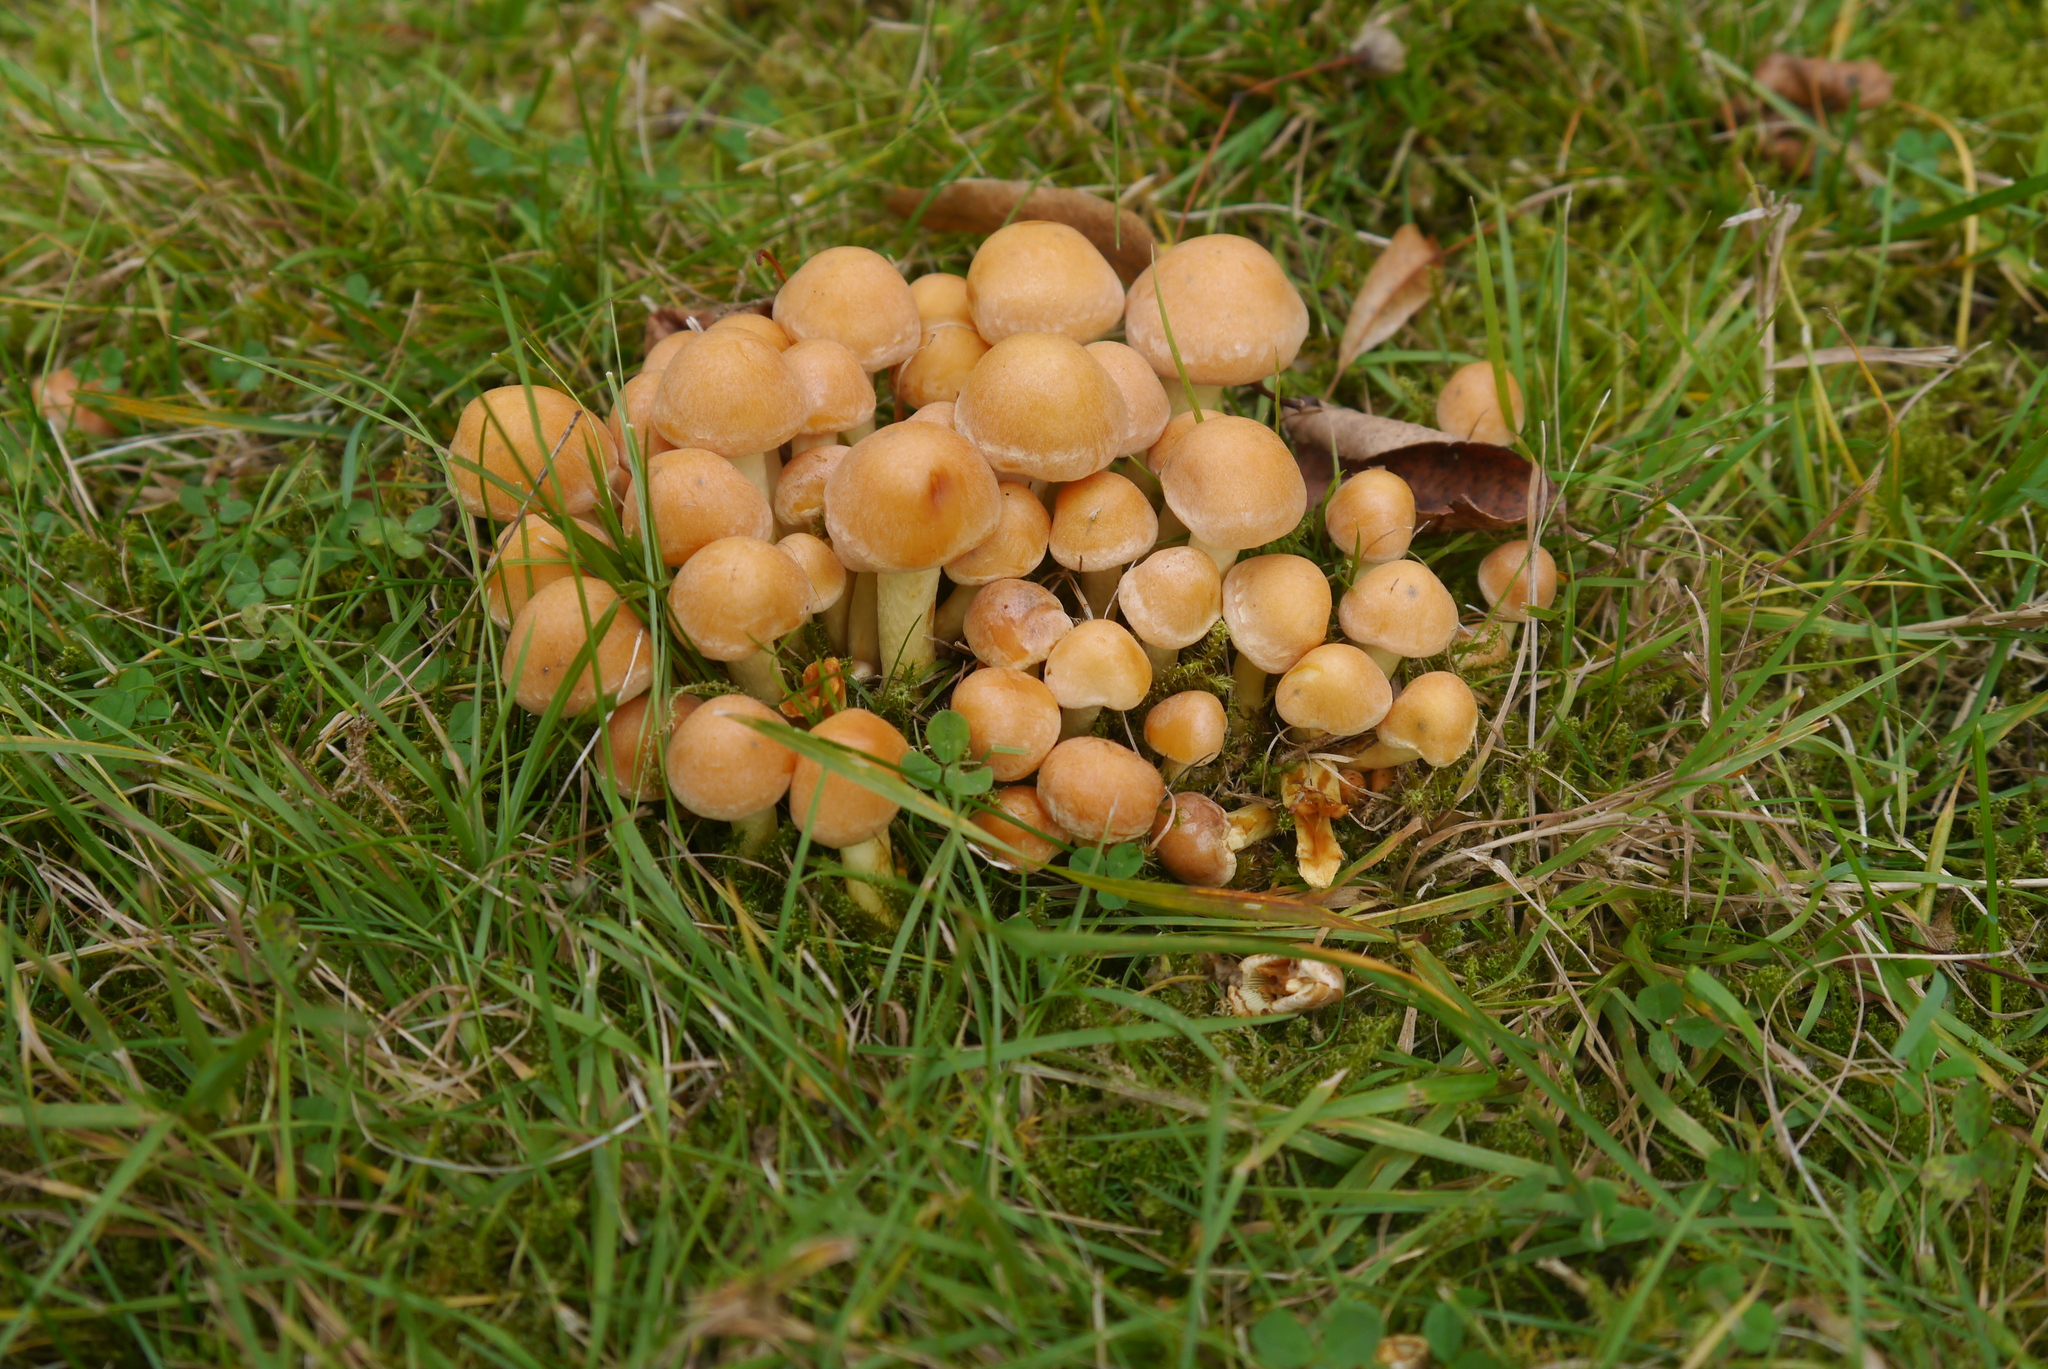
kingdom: Fungi
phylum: Basidiomycota
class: Agaricomycetes
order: Agaricales
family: Strophariaceae
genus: Hypholoma
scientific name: Hypholoma fasciculare
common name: Sulphur tuft
